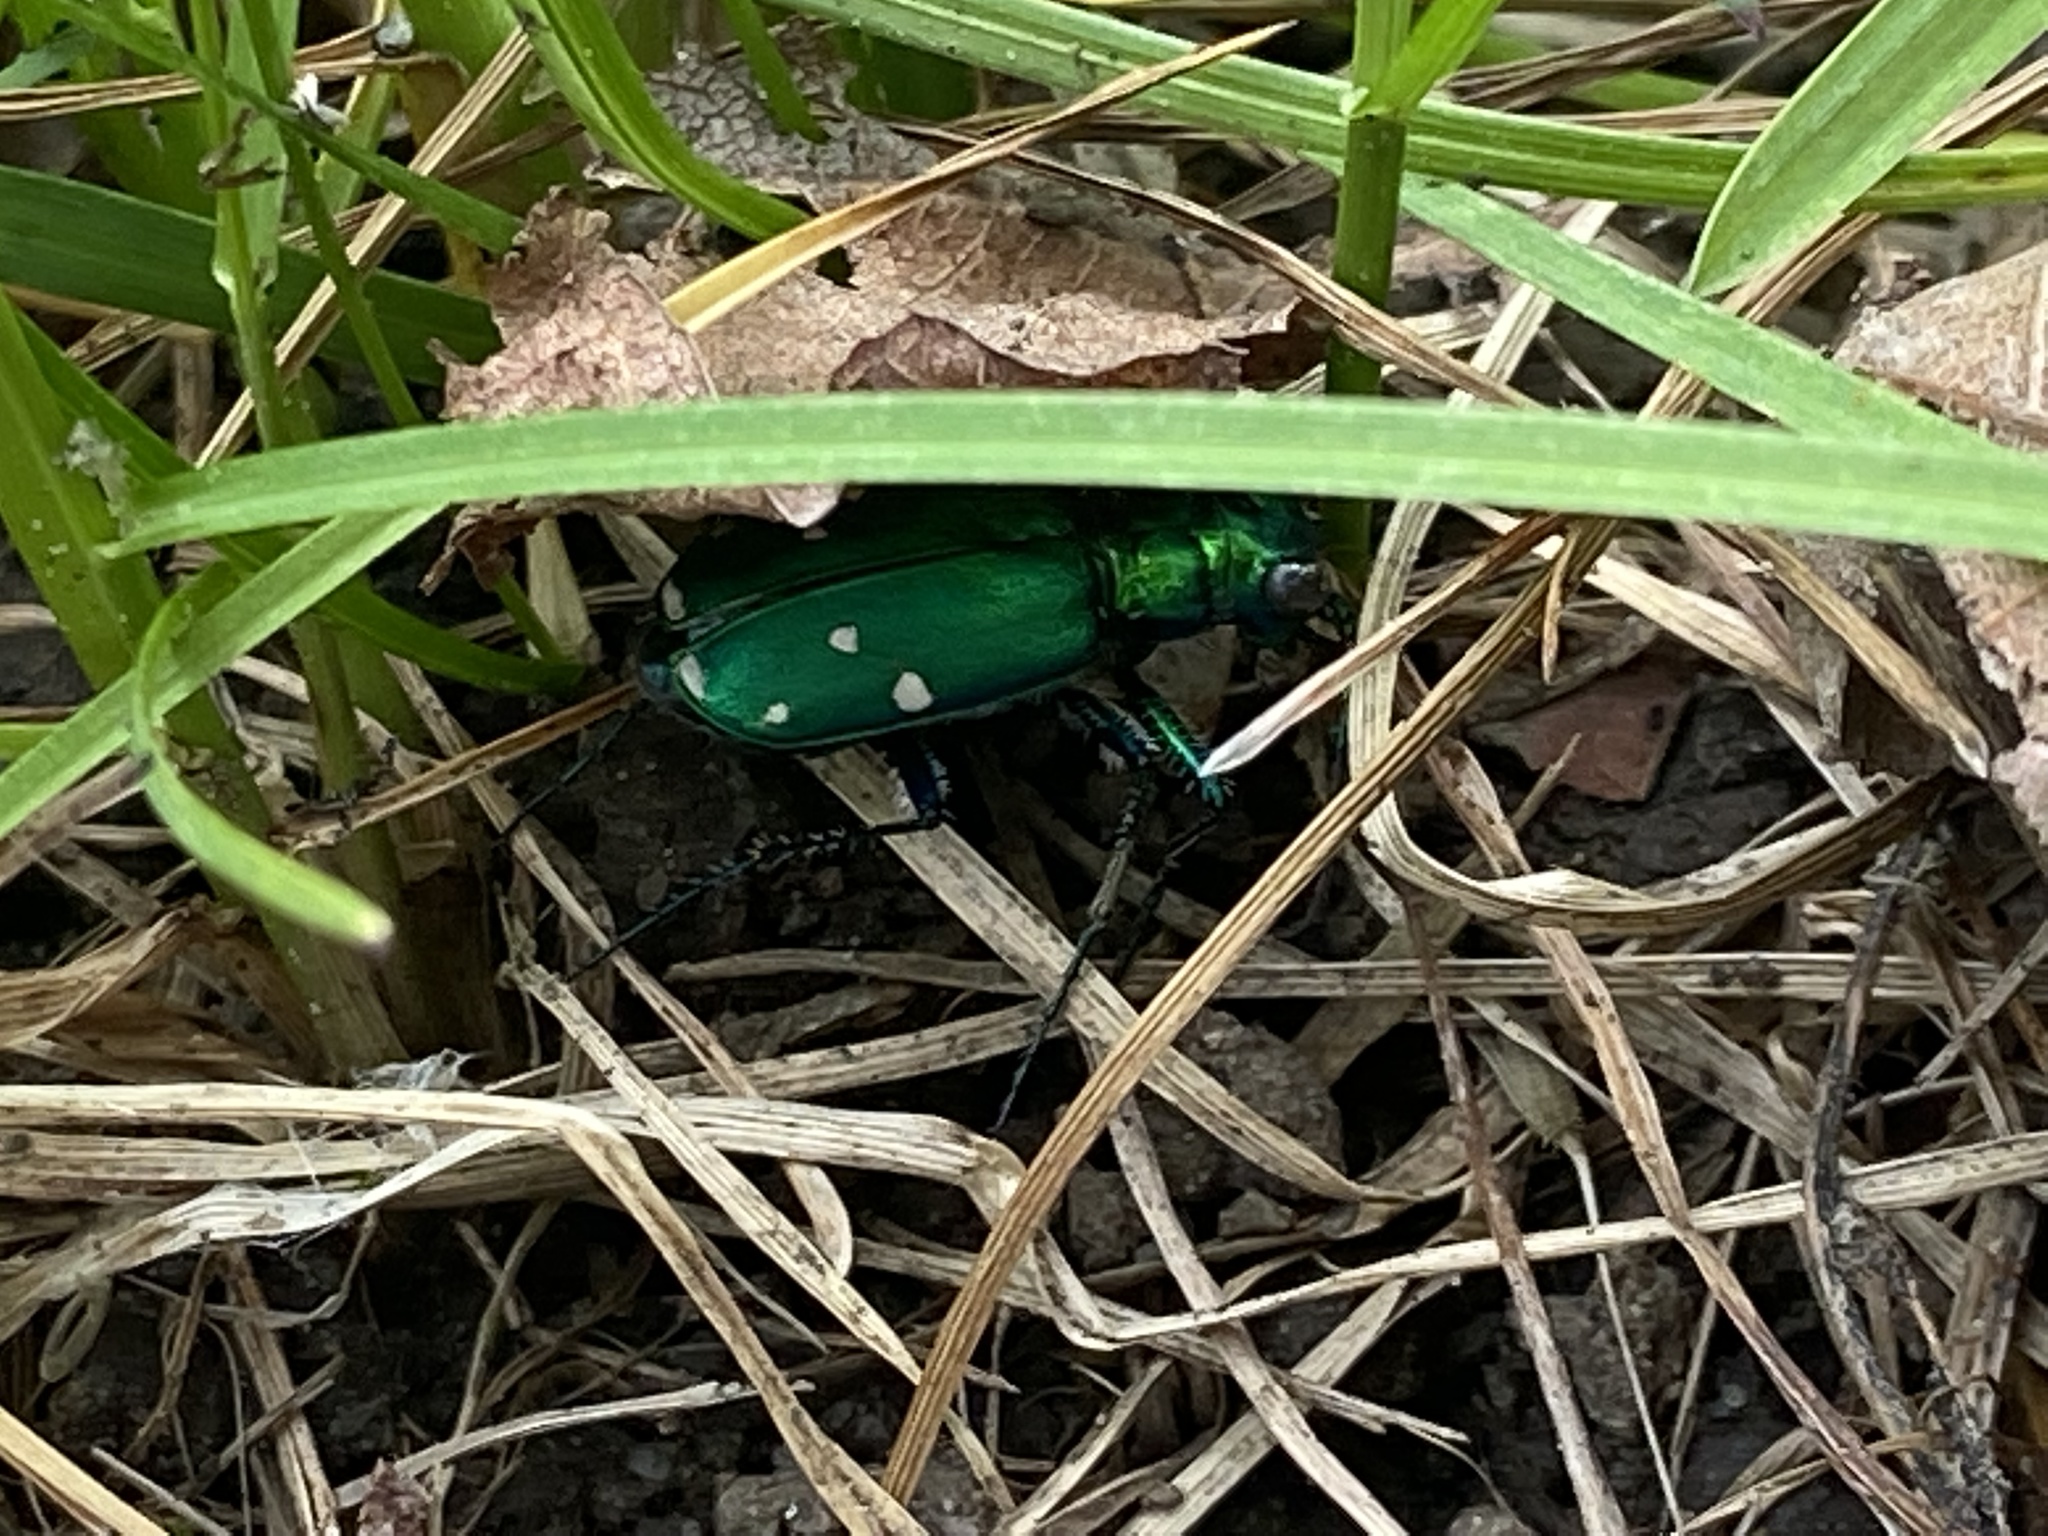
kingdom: Animalia
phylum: Arthropoda
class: Insecta
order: Coleoptera
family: Carabidae
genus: Cicindela
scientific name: Cicindela sexguttata
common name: Six-spotted tiger beetle
